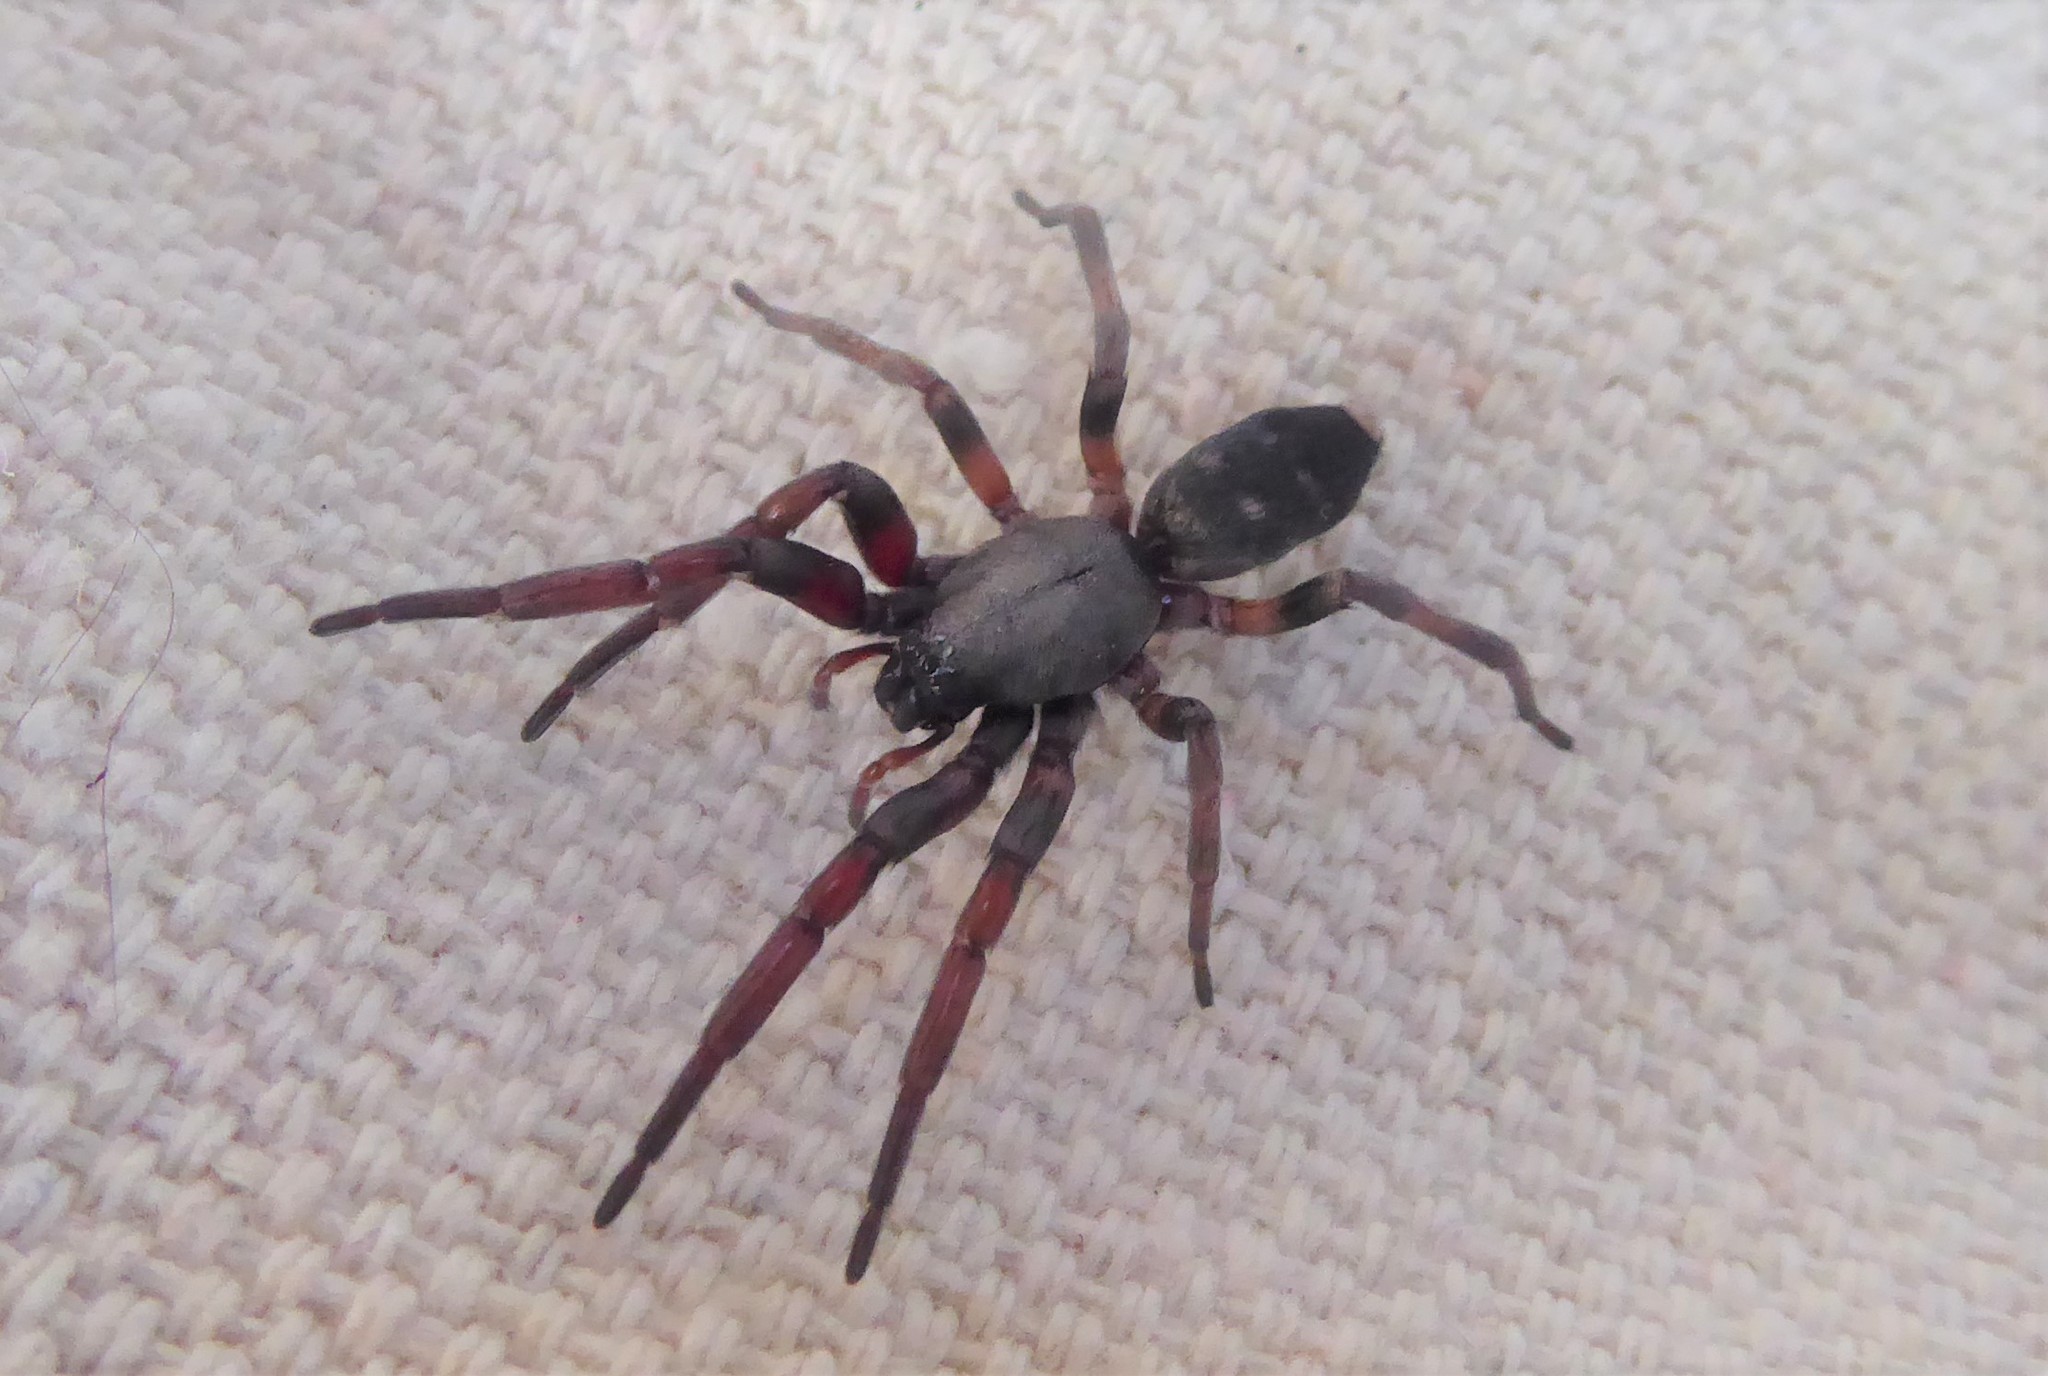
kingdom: Animalia
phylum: Arthropoda
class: Arachnida
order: Araneae
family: Lamponidae
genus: Lampona
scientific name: Lampona cylindrata
